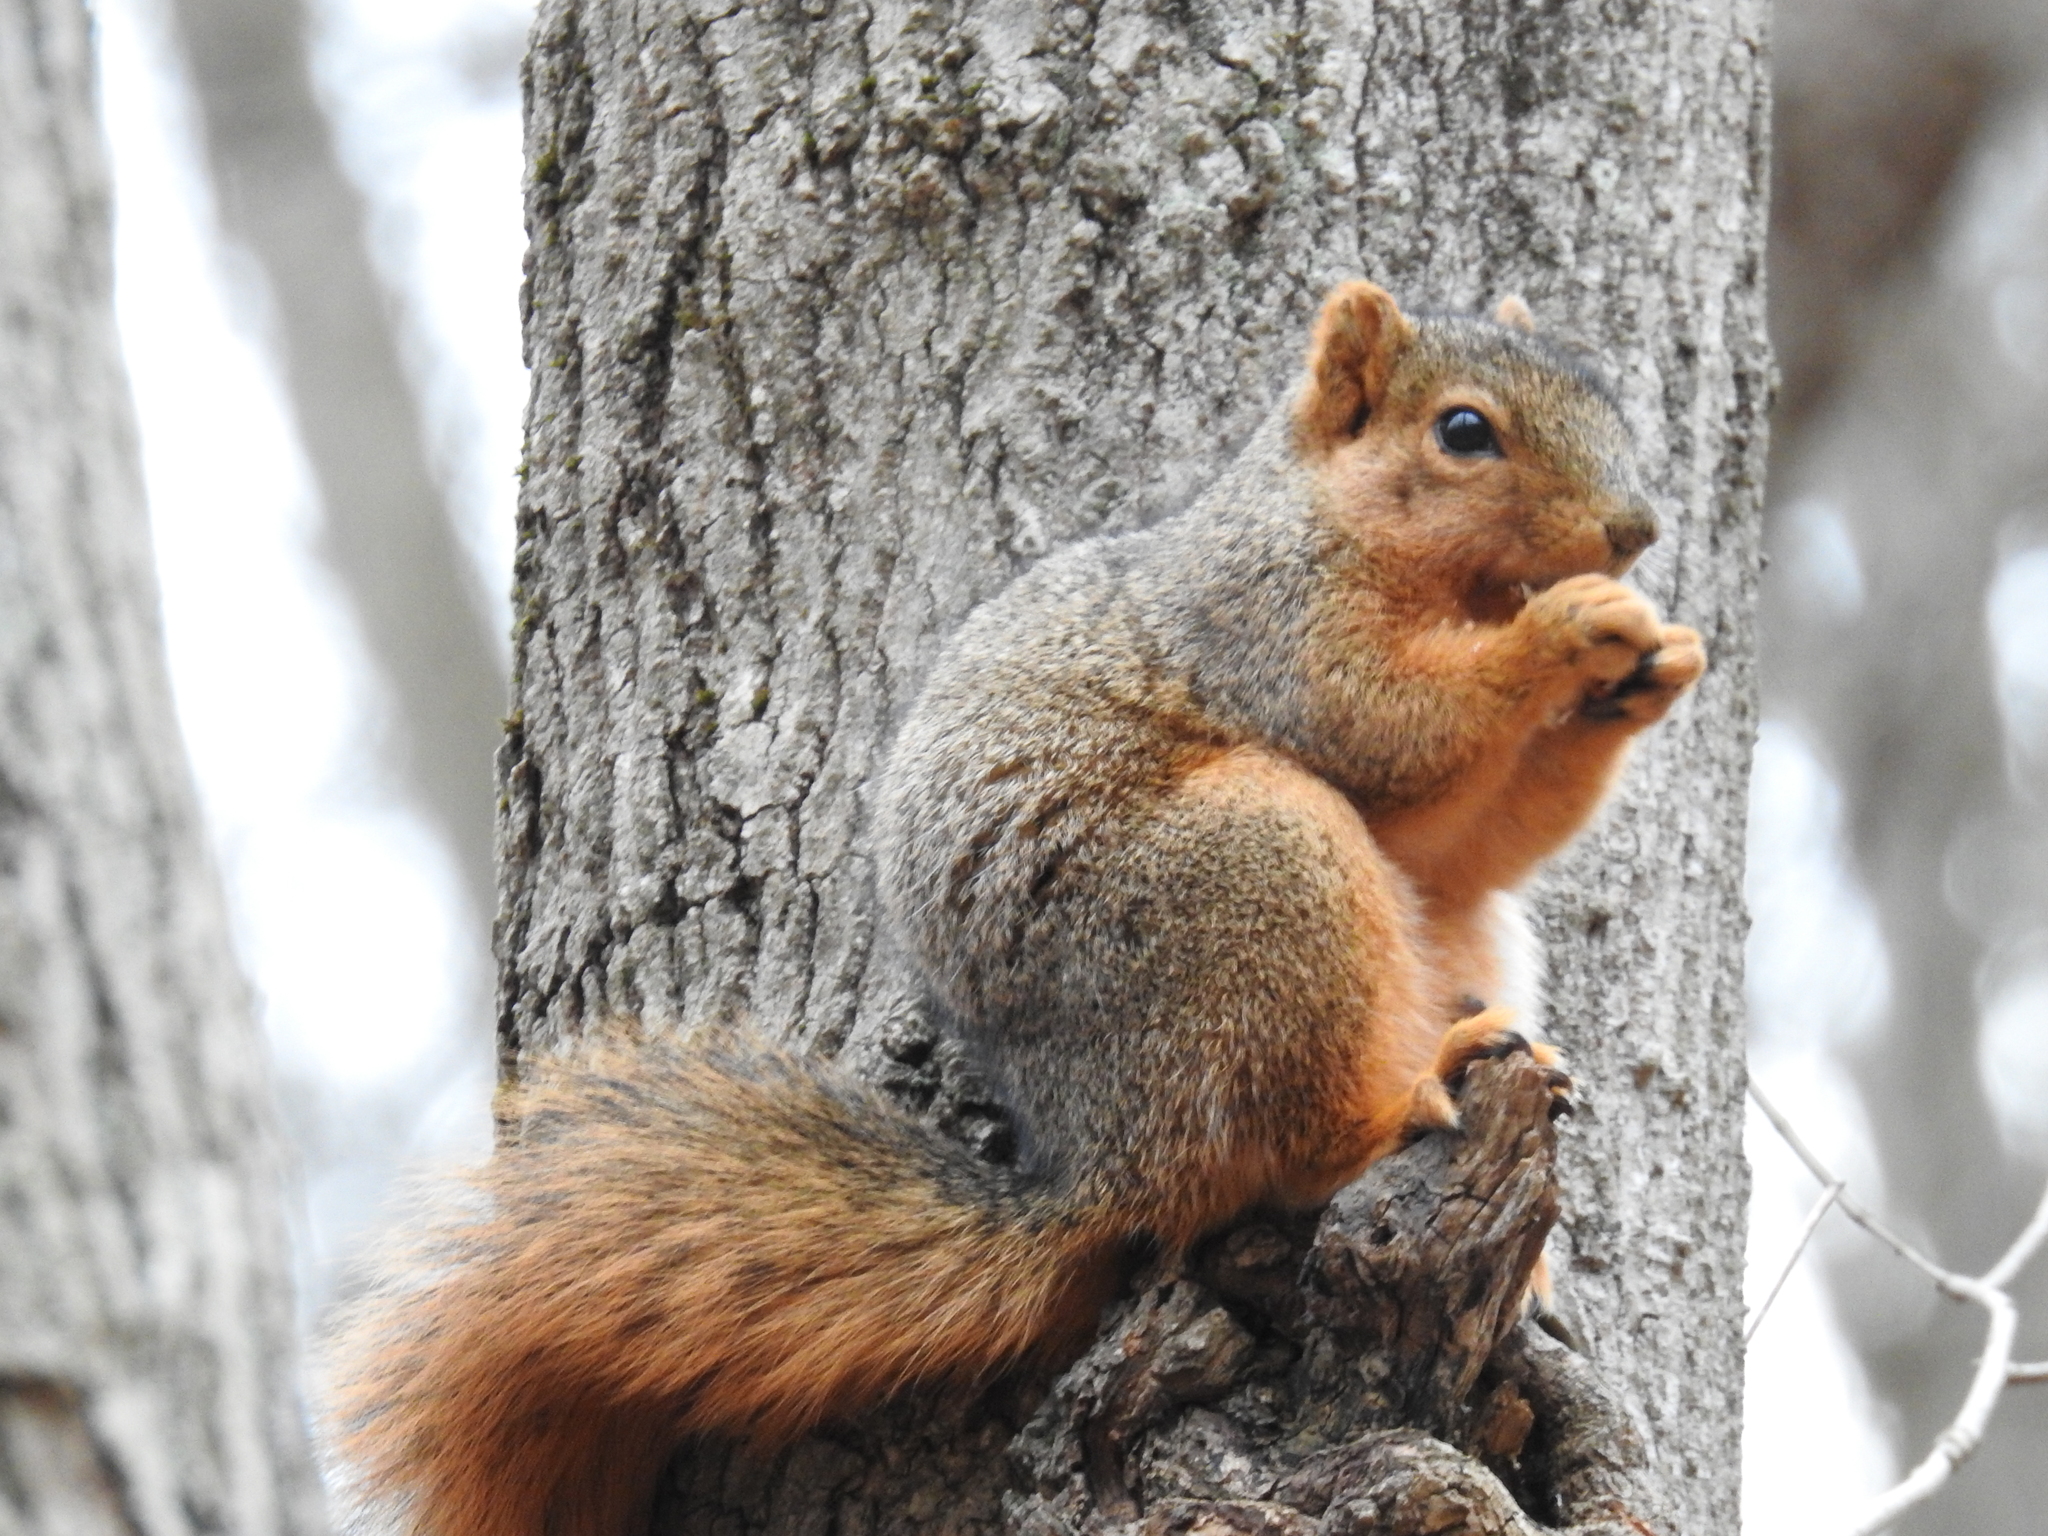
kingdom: Animalia
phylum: Chordata
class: Mammalia
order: Rodentia
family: Sciuridae
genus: Sciurus
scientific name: Sciurus niger
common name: Fox squirrel
